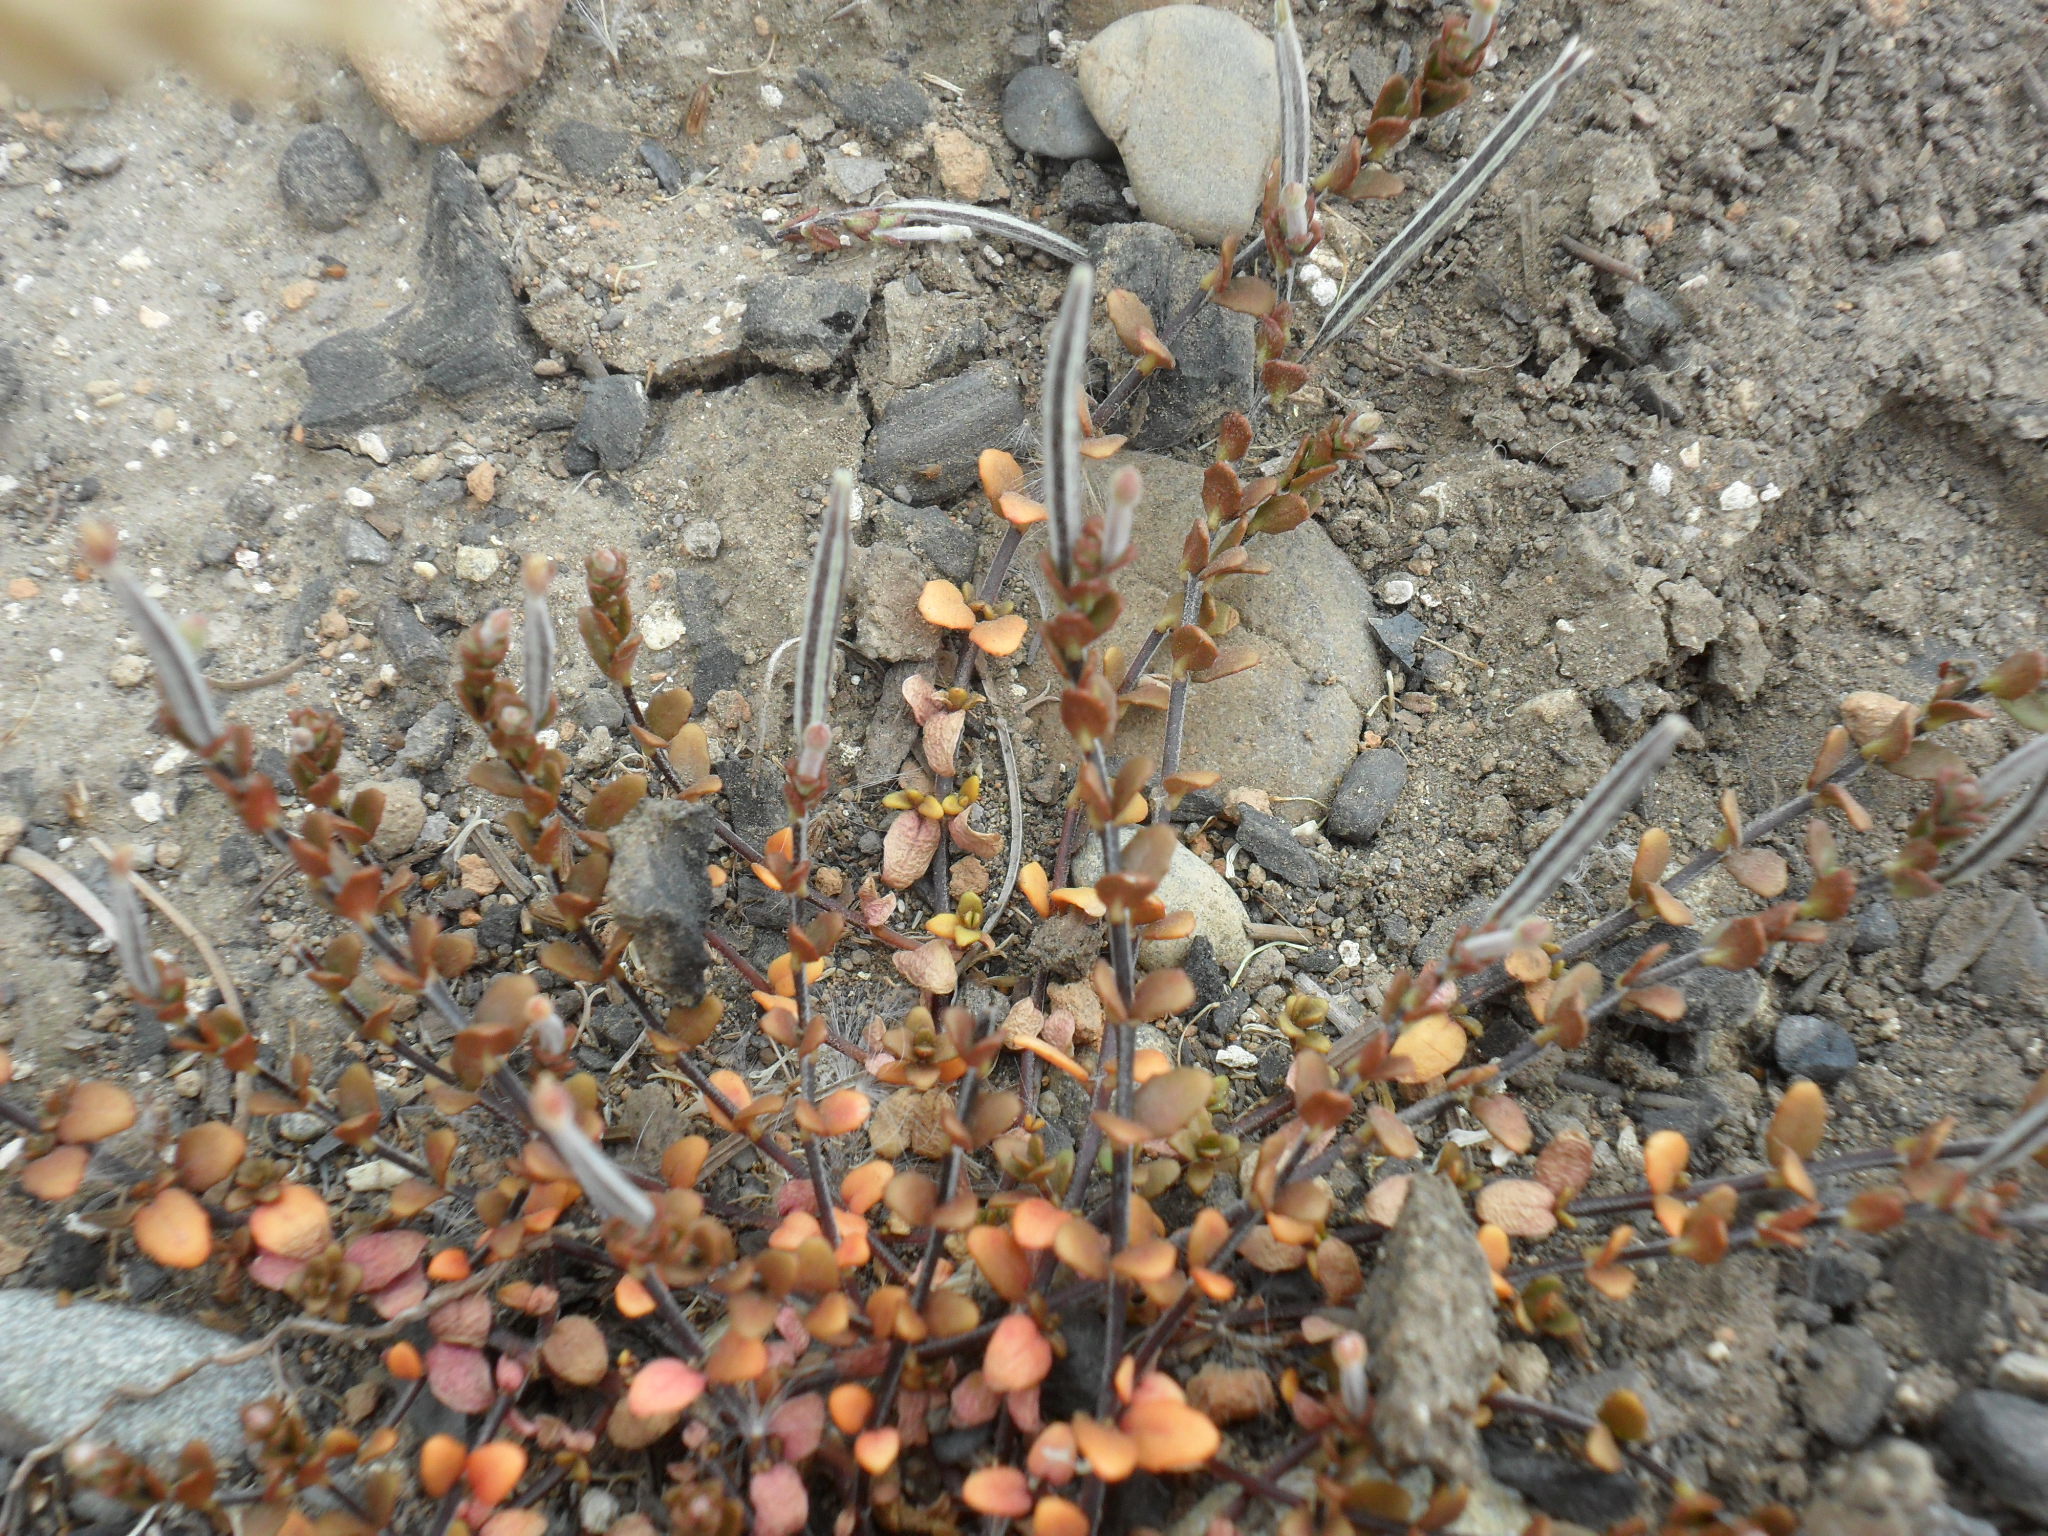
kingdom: Plantae
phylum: Tracheophyta
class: Magnoliopsida
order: Myrtales
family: Onagraceae
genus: Epilobium
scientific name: Epilobium microphyllum
